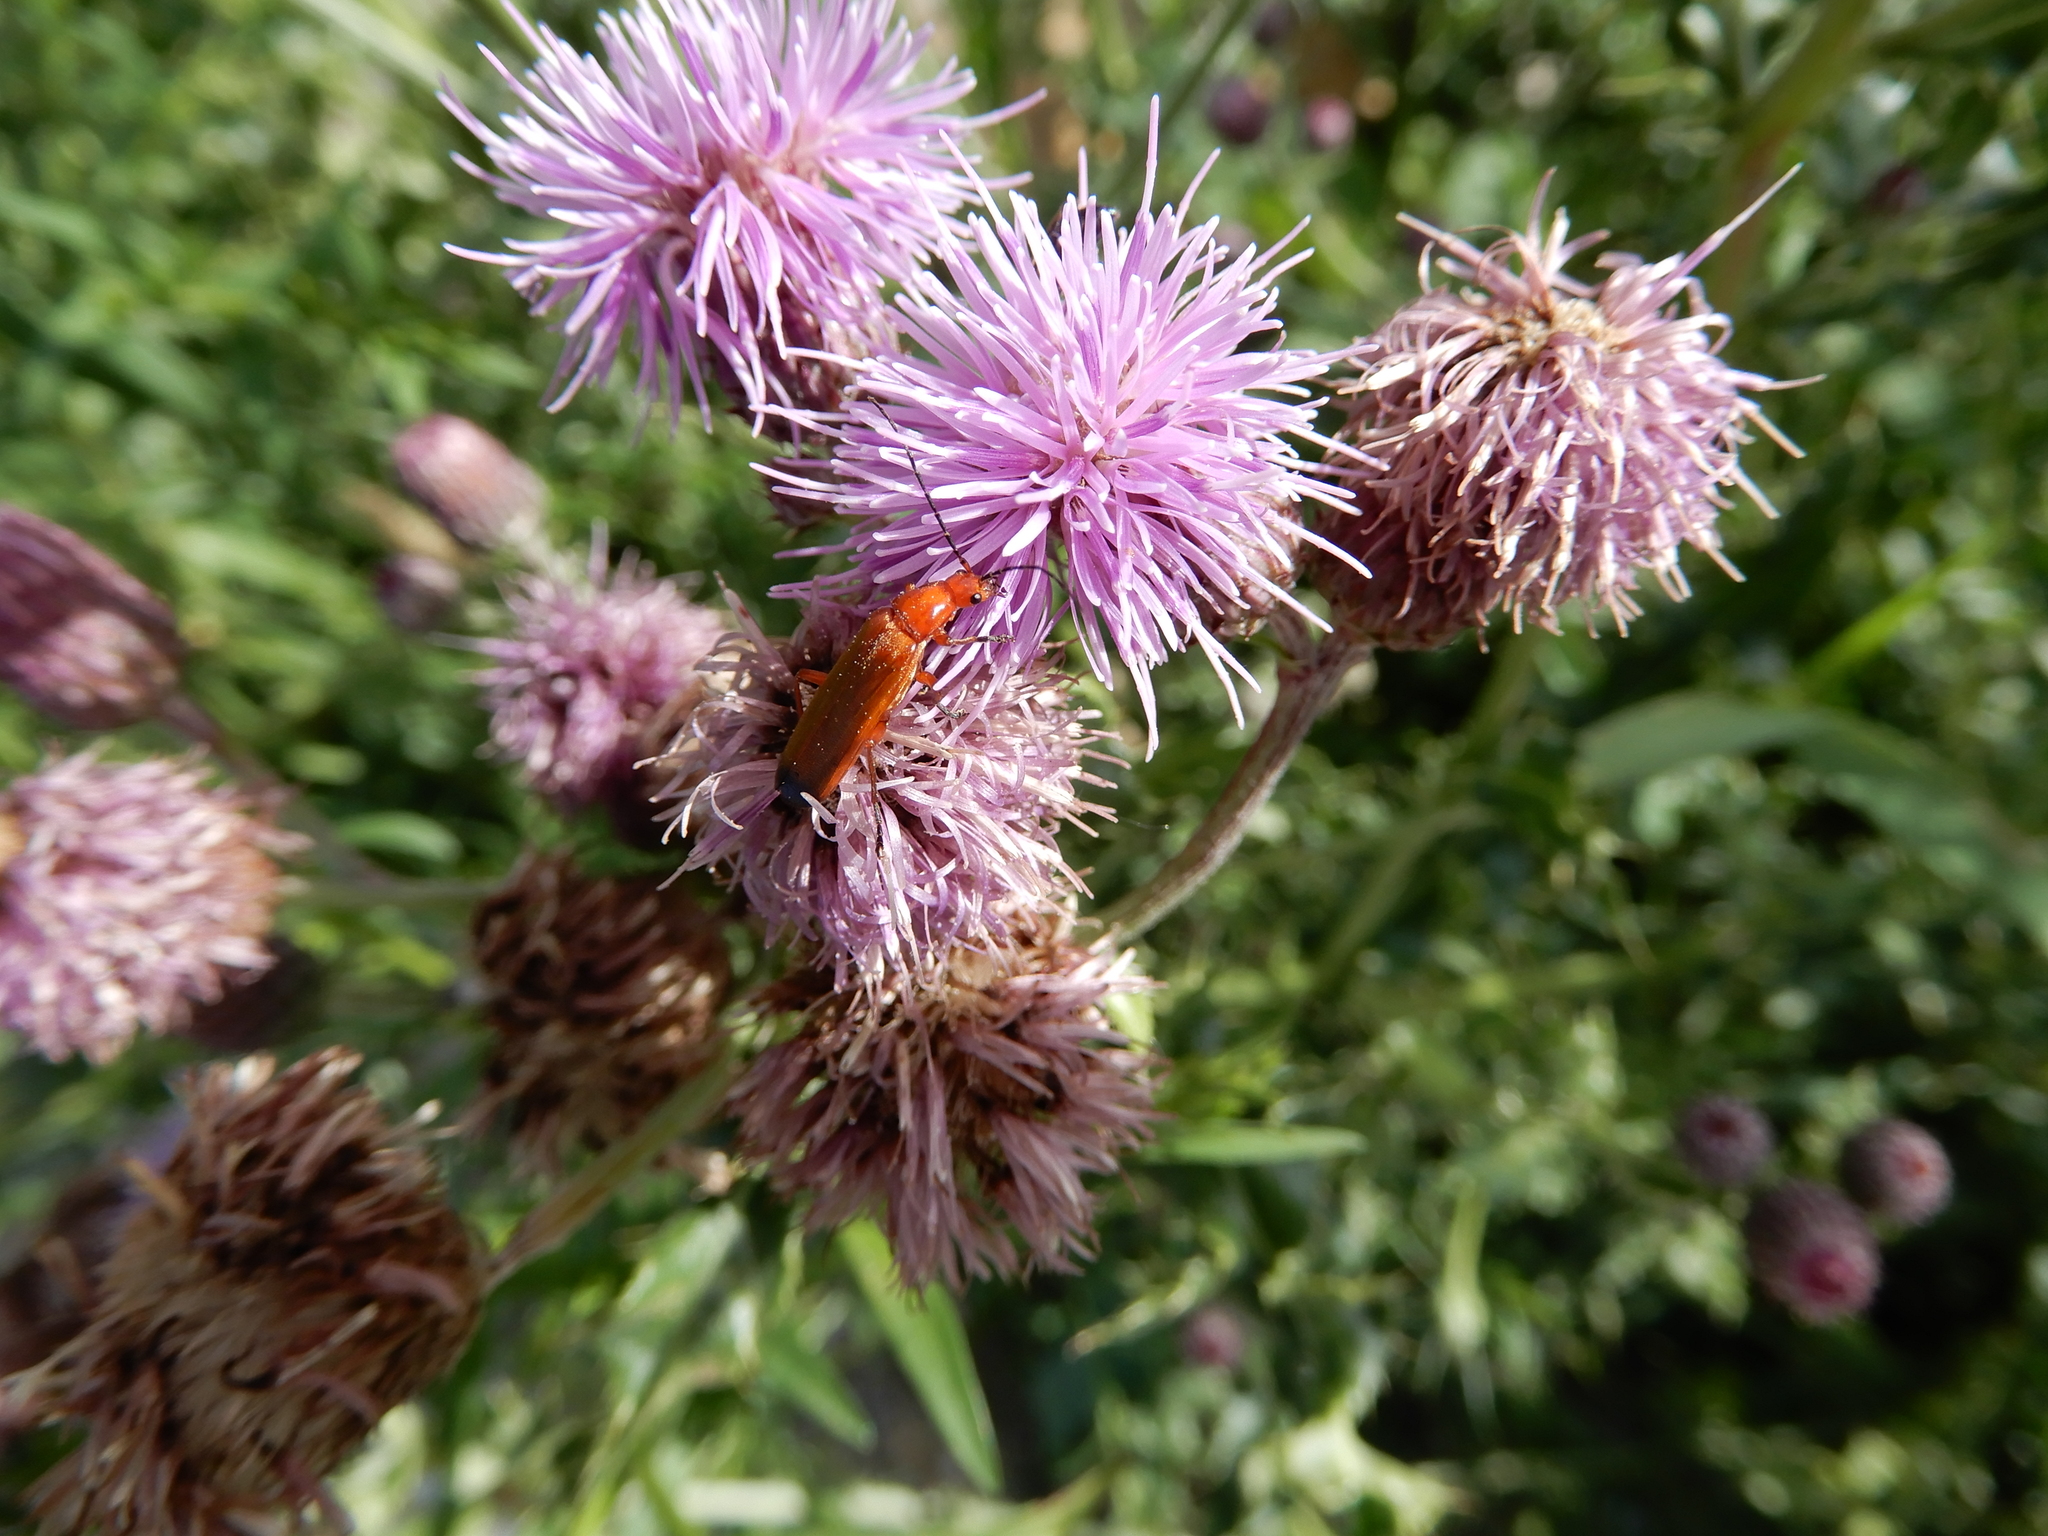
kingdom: Animalia
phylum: Arthropoda
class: Insecta
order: Coleoptera
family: Cantharidae
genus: Rhagonycha
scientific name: Rhagonycha fulva
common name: Common red soldier beetle
